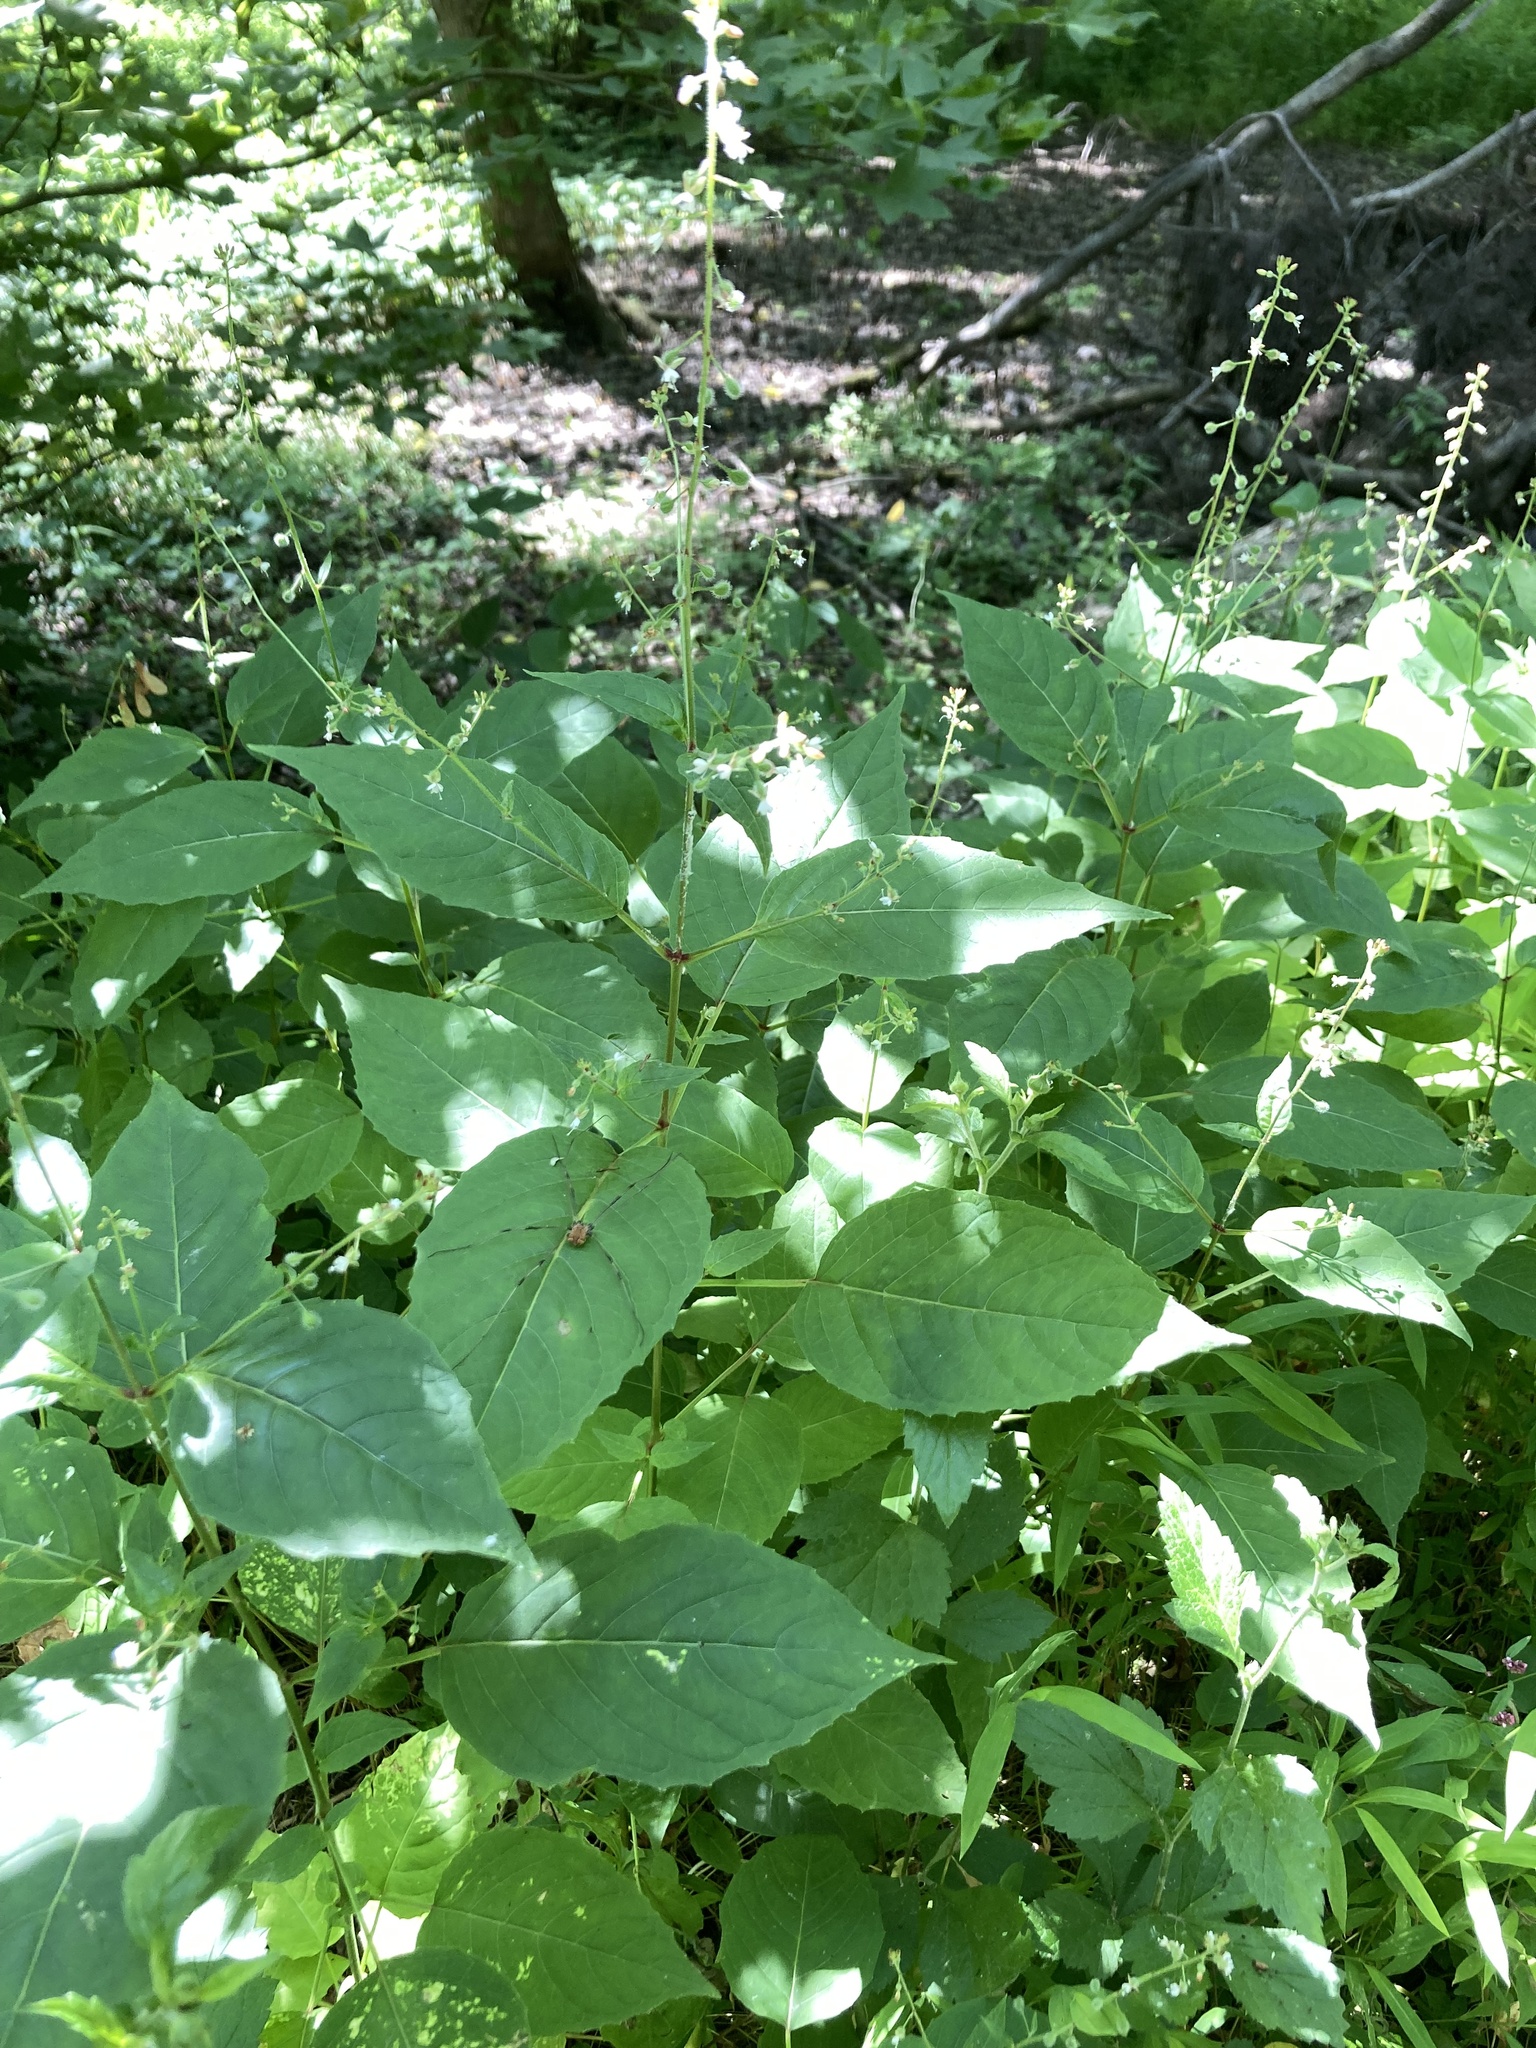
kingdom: Plantae
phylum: Tracheophyta
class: Magnoliopsida
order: Myrtales
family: Onagraceae
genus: Circaea
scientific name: Circaea canadensis
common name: Broad-leaved enchanter's nightshade
